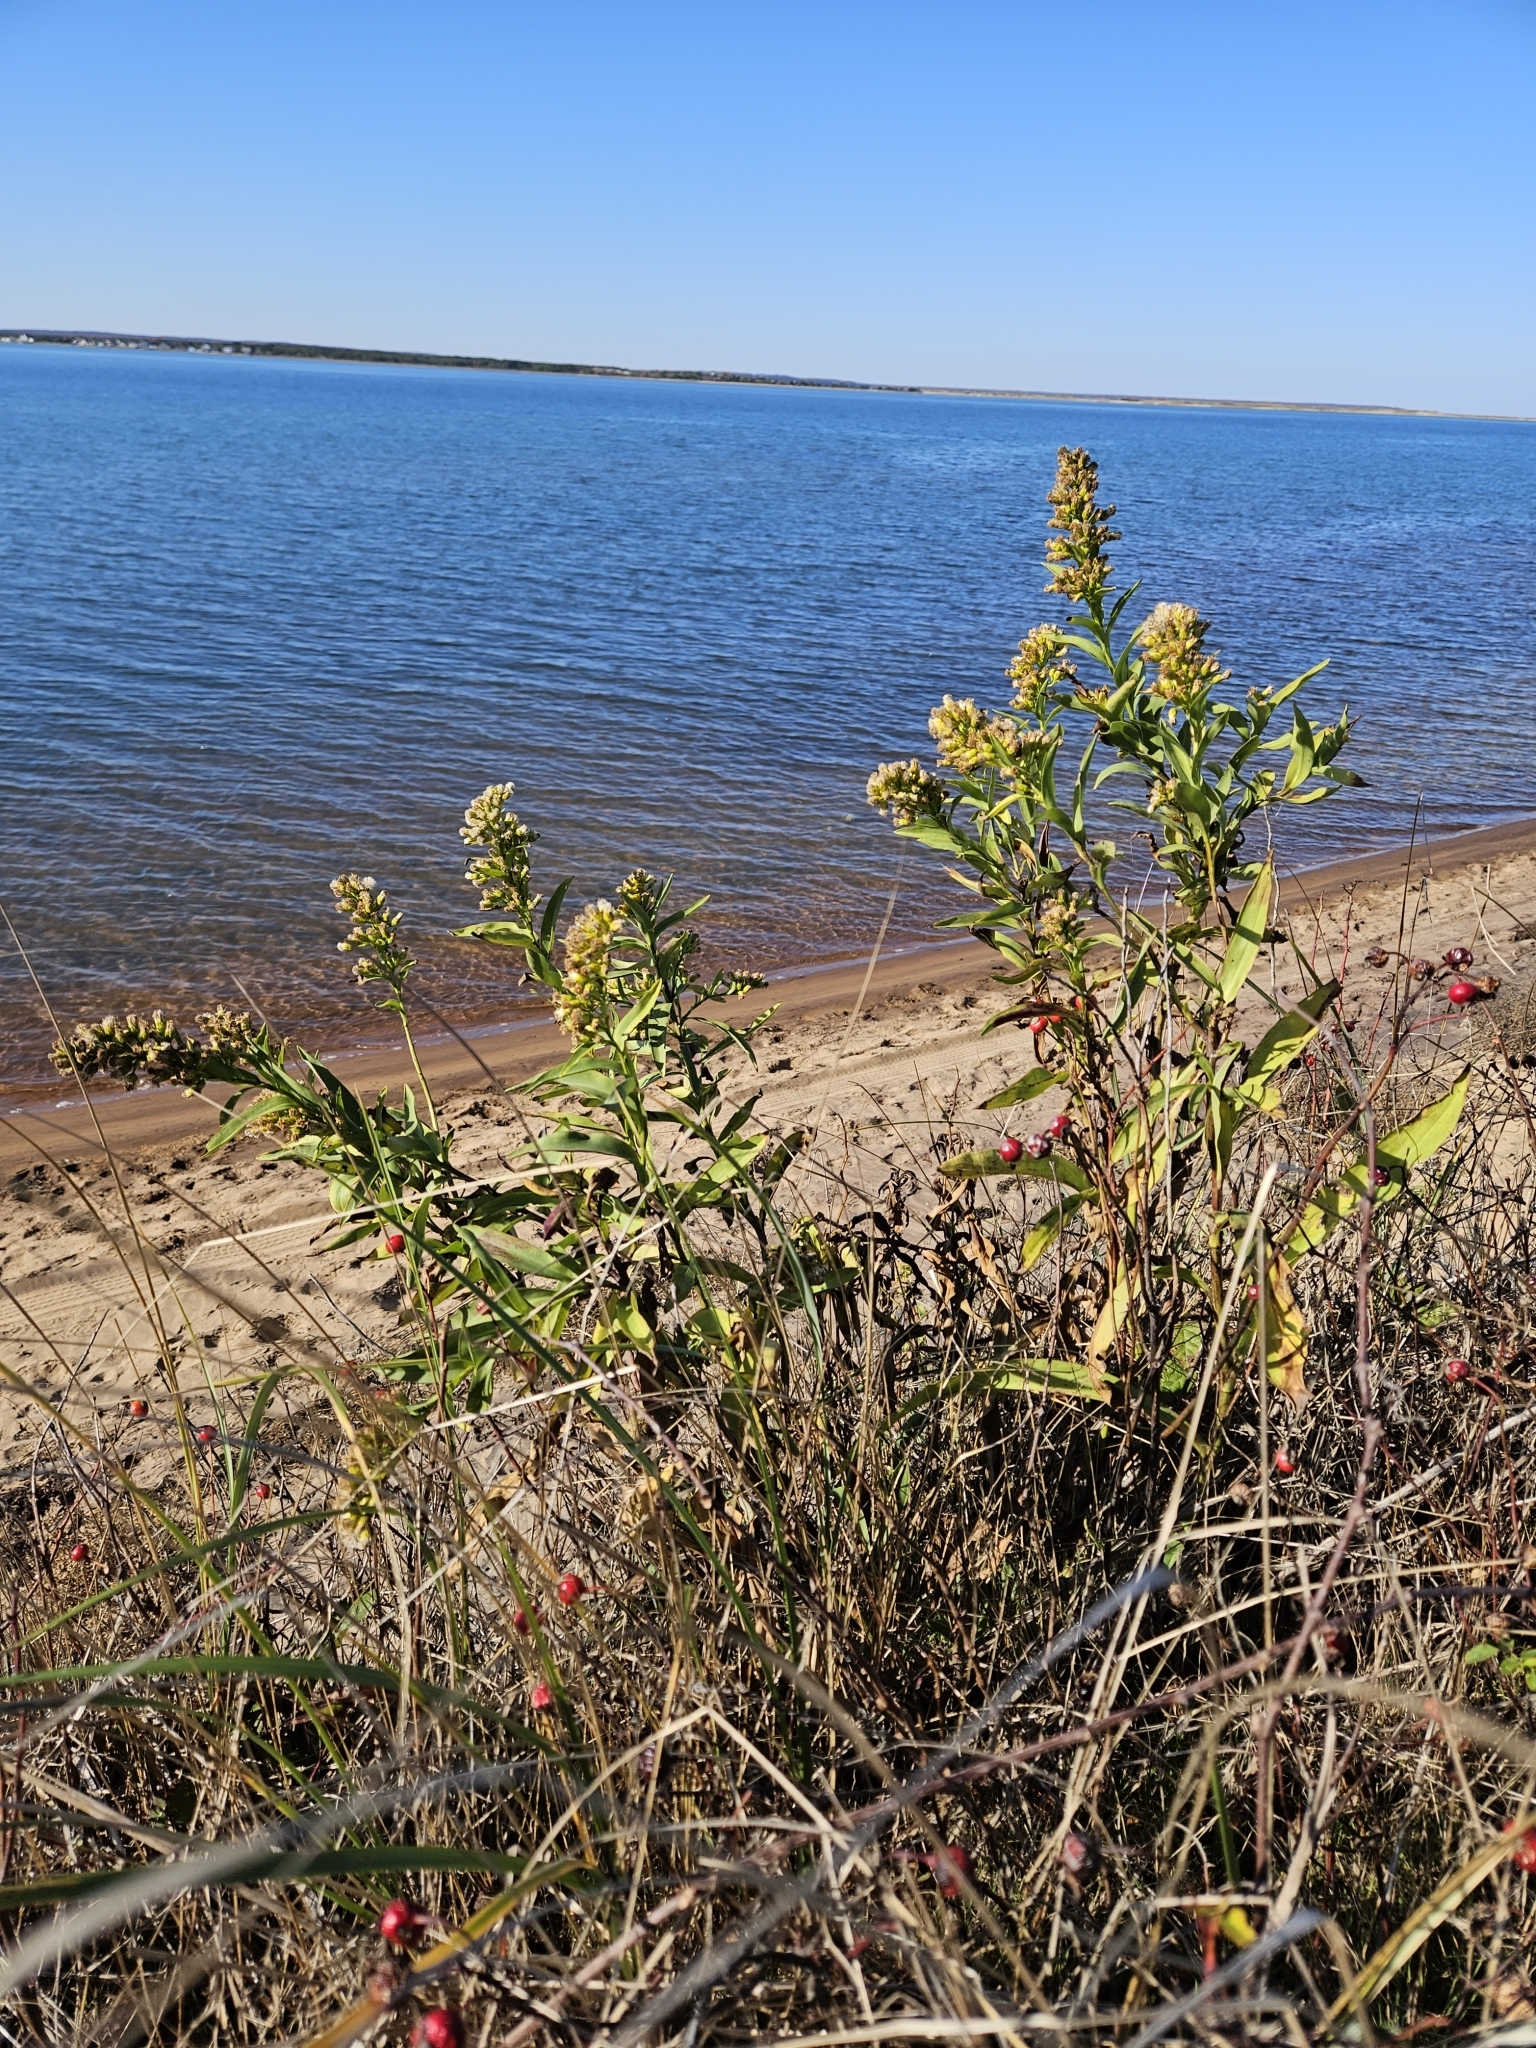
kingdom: Plantae
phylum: Tracheophyta
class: Magnoliopsida
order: Asterales
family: Asteraceae
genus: Solidago
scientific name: Solidago sempervirens
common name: Salt-marsh goldenrod
